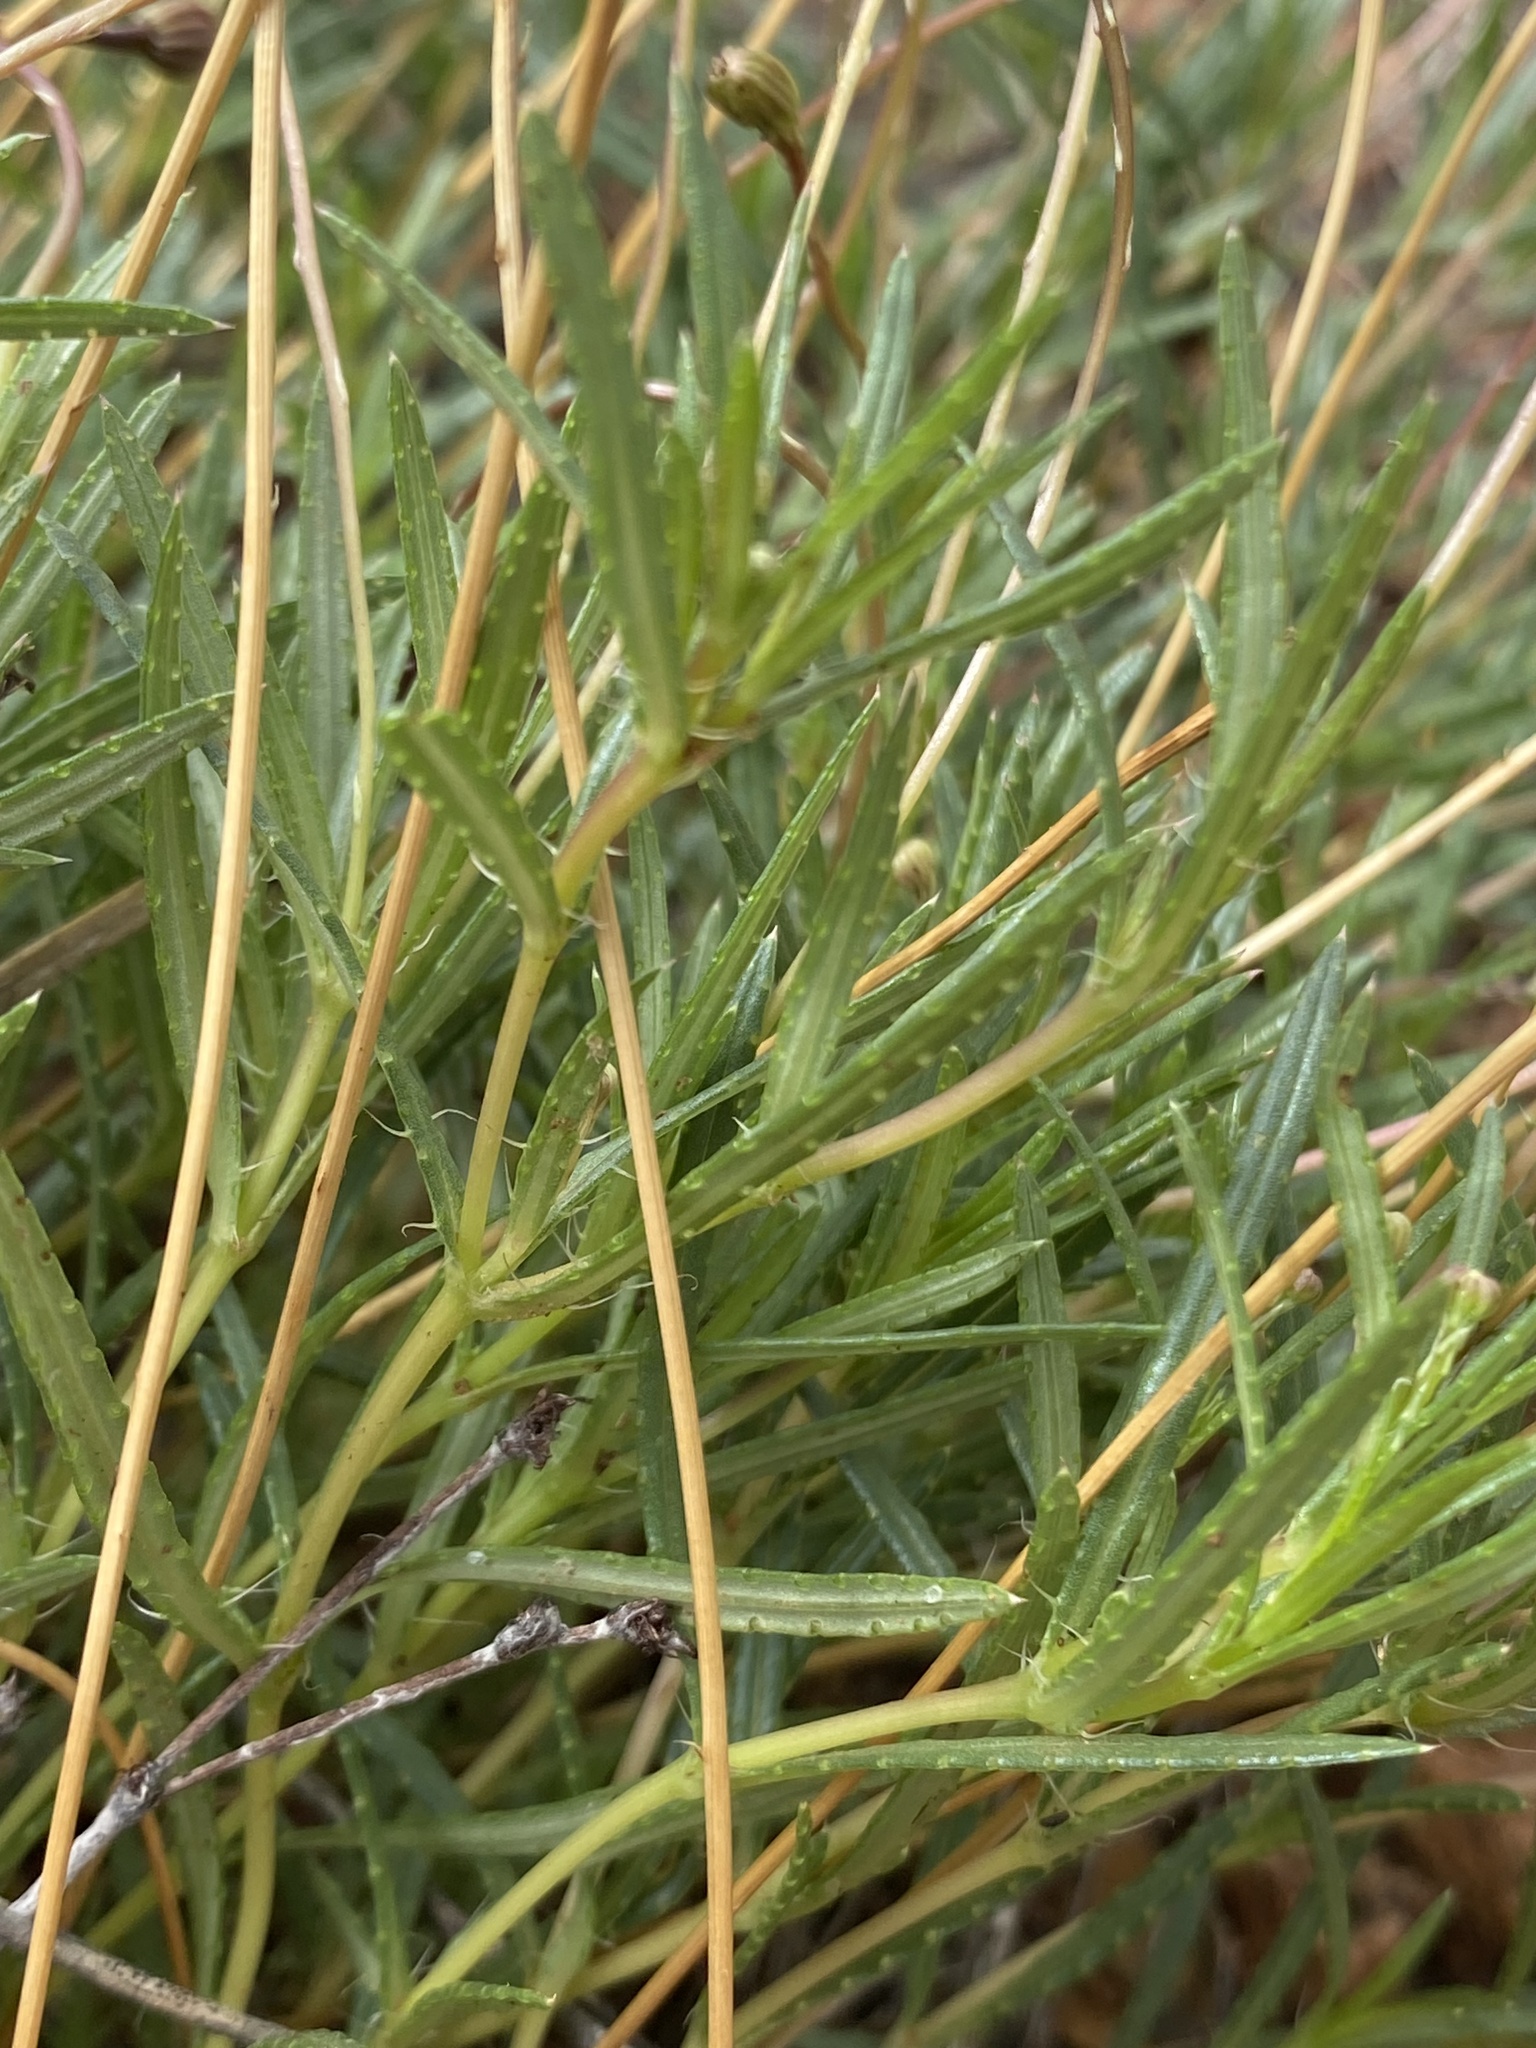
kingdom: Plantae
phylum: Tracheophyta
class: Magnoliopsida
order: Asterales
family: Asteraceae
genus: Pectis
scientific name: Pectis longipes
